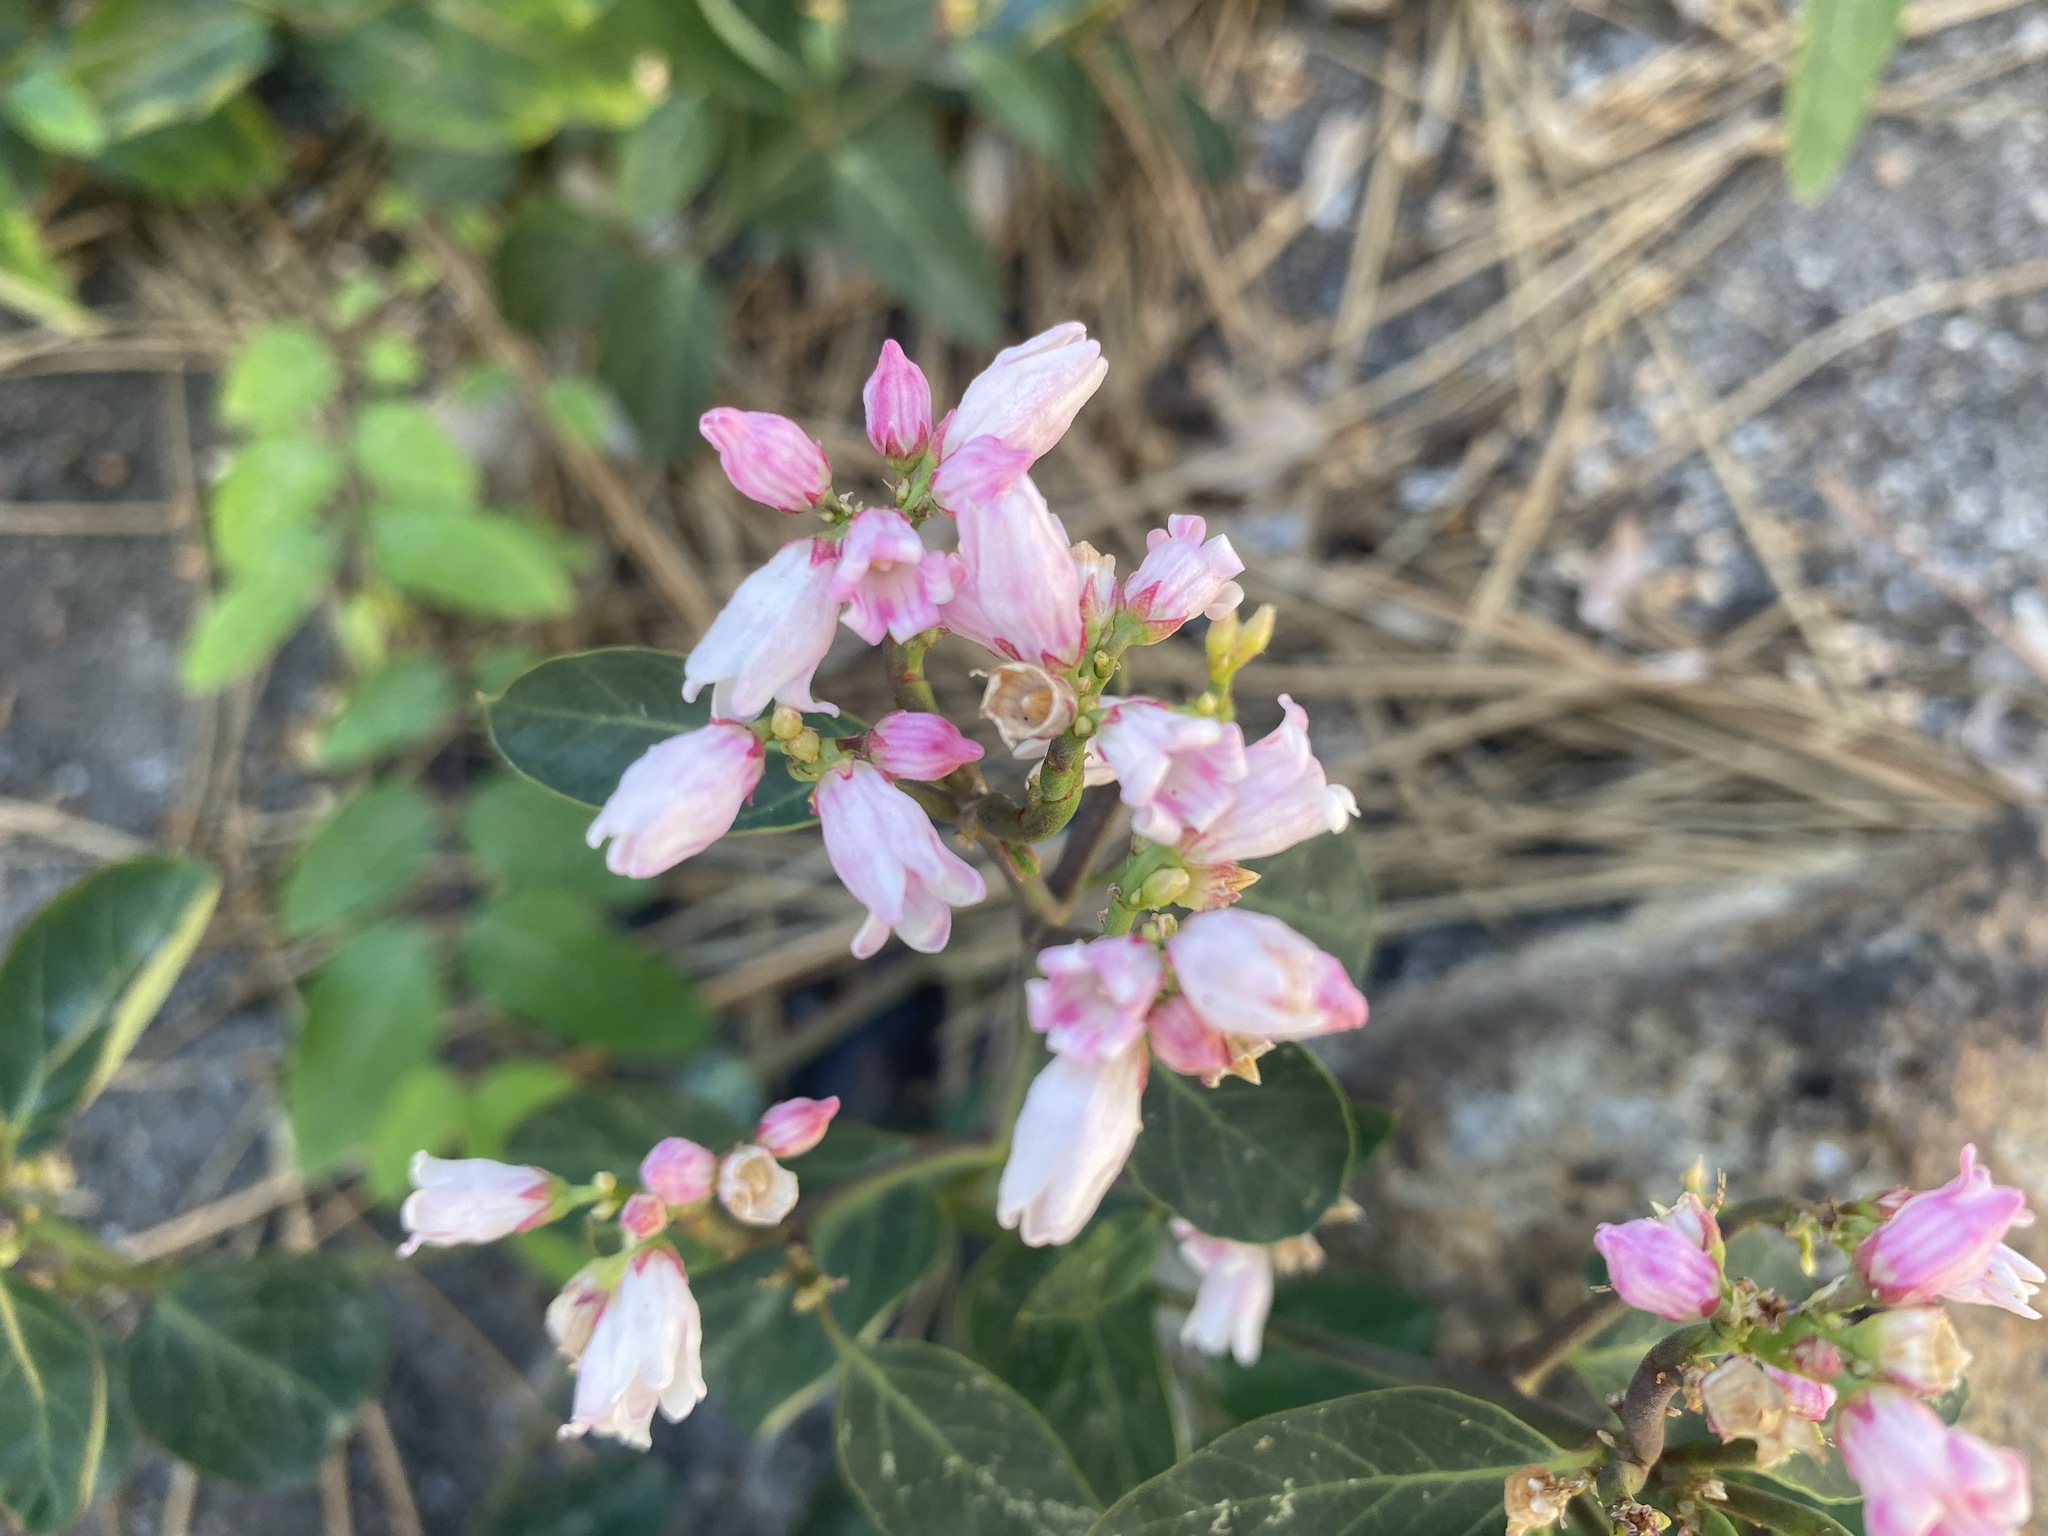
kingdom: Plantae
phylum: Tracheophyta
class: Magnoliopsida
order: Gentianales
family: Apocynaceae
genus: Apocynum
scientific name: Apocynum androsaemifolium
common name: Spreading dogbane
